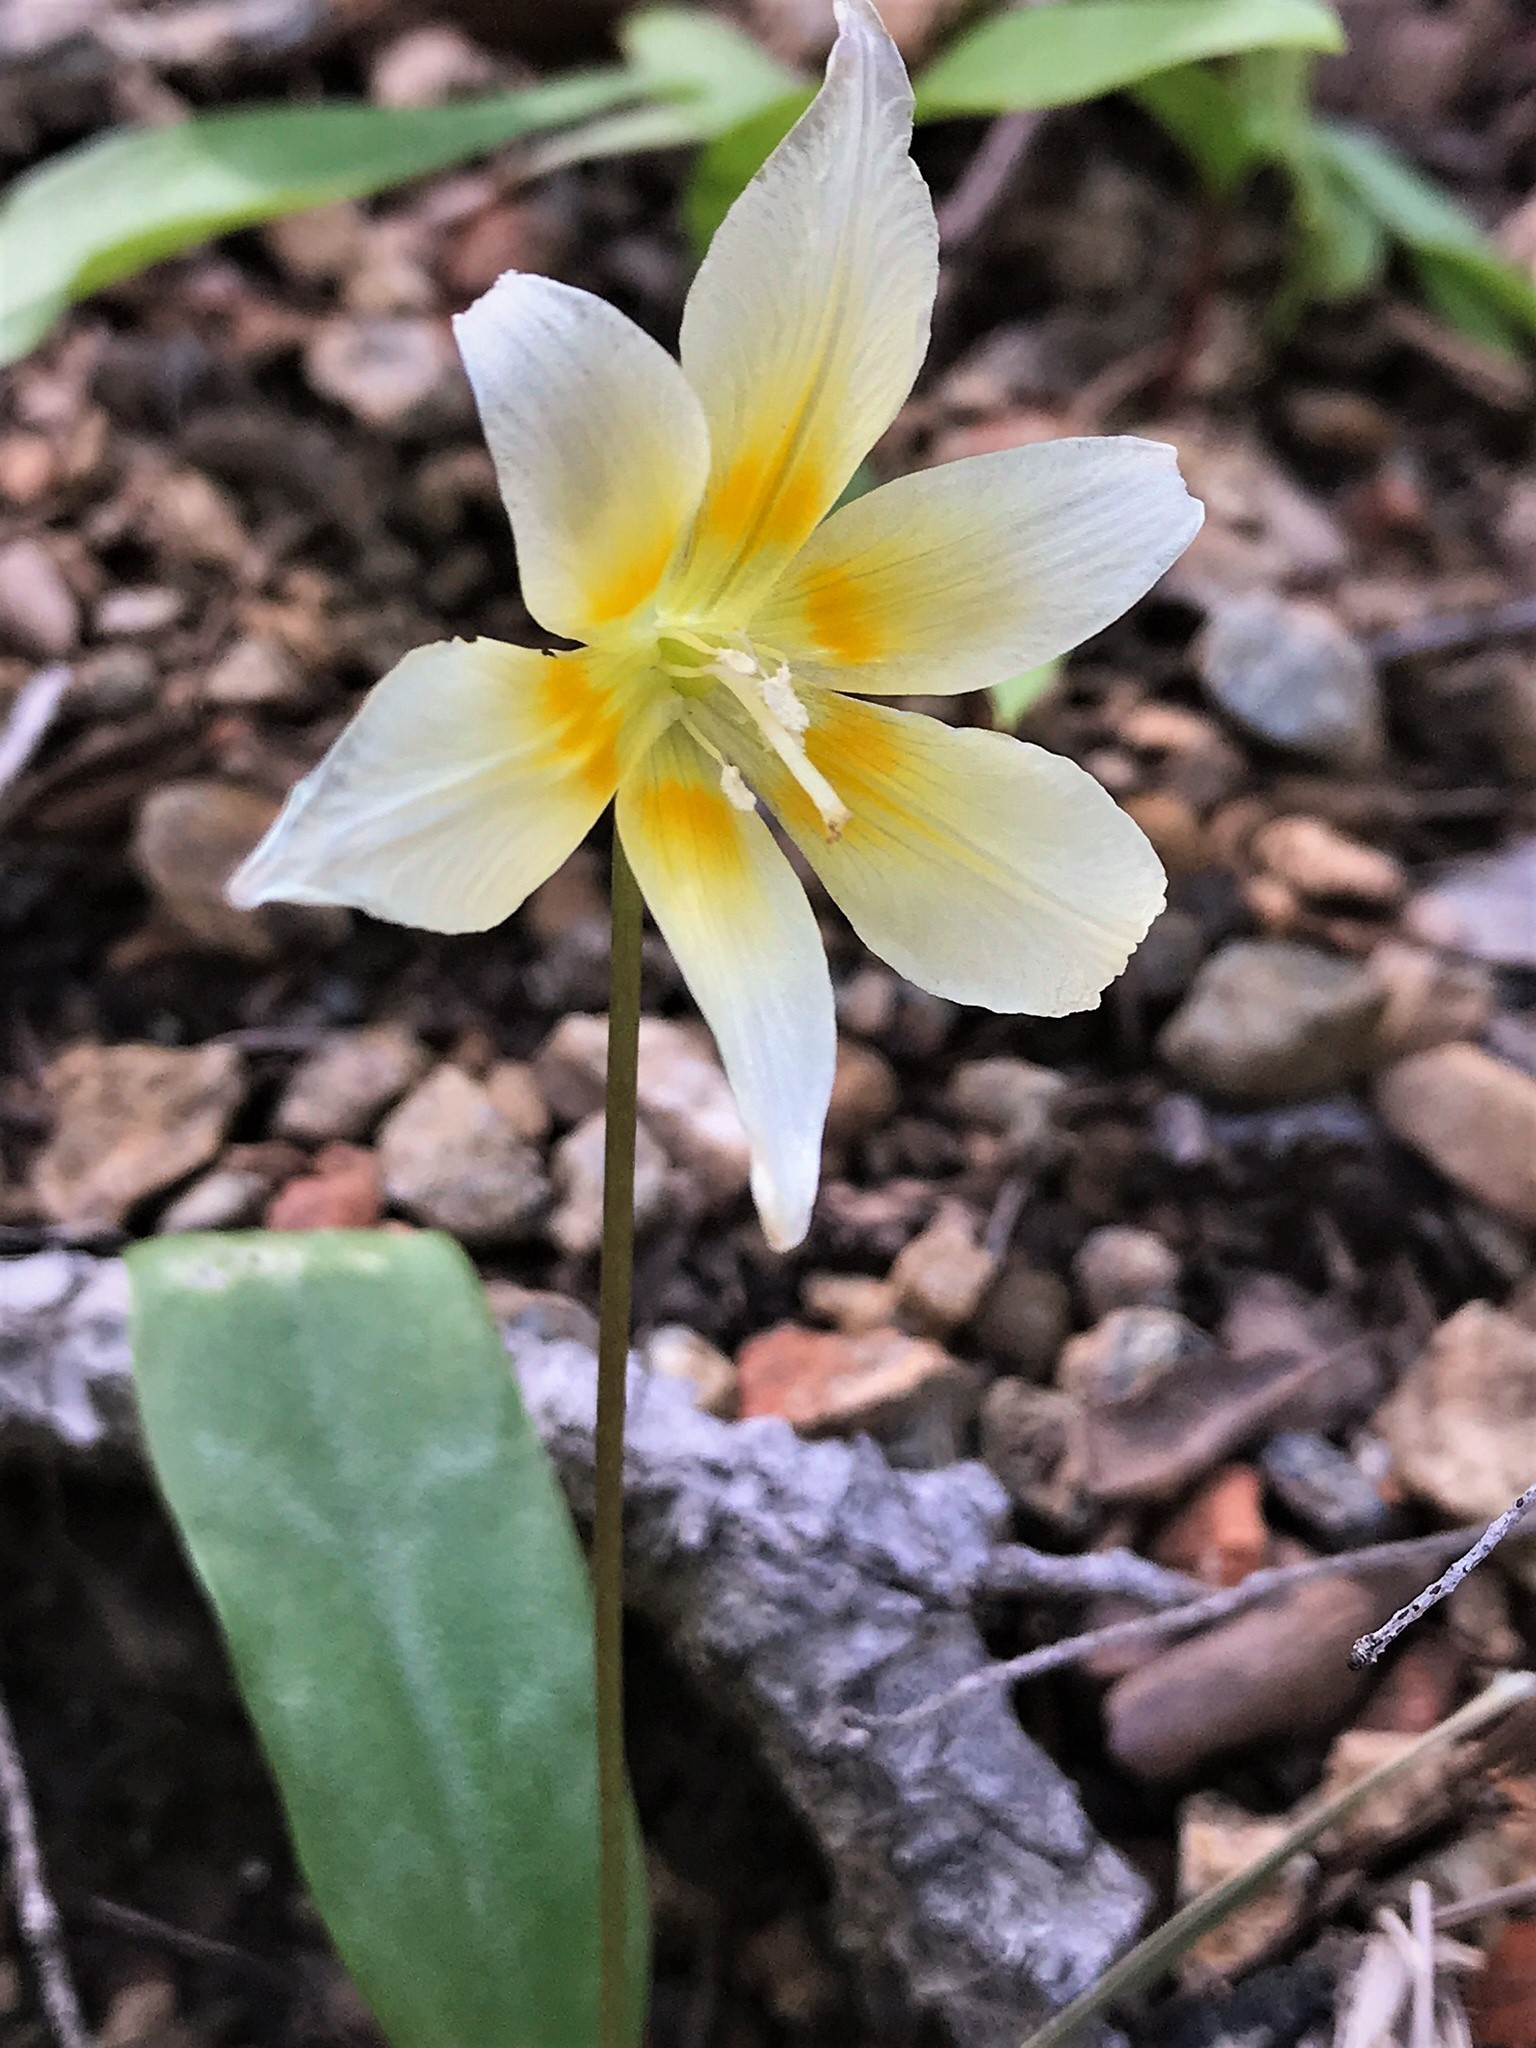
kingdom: Plantae
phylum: Tracheophyta
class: Liliopsida
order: Liliales
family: Liliaceae
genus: Erythronium
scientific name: Erythronium californicum
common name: Fawn-lily
